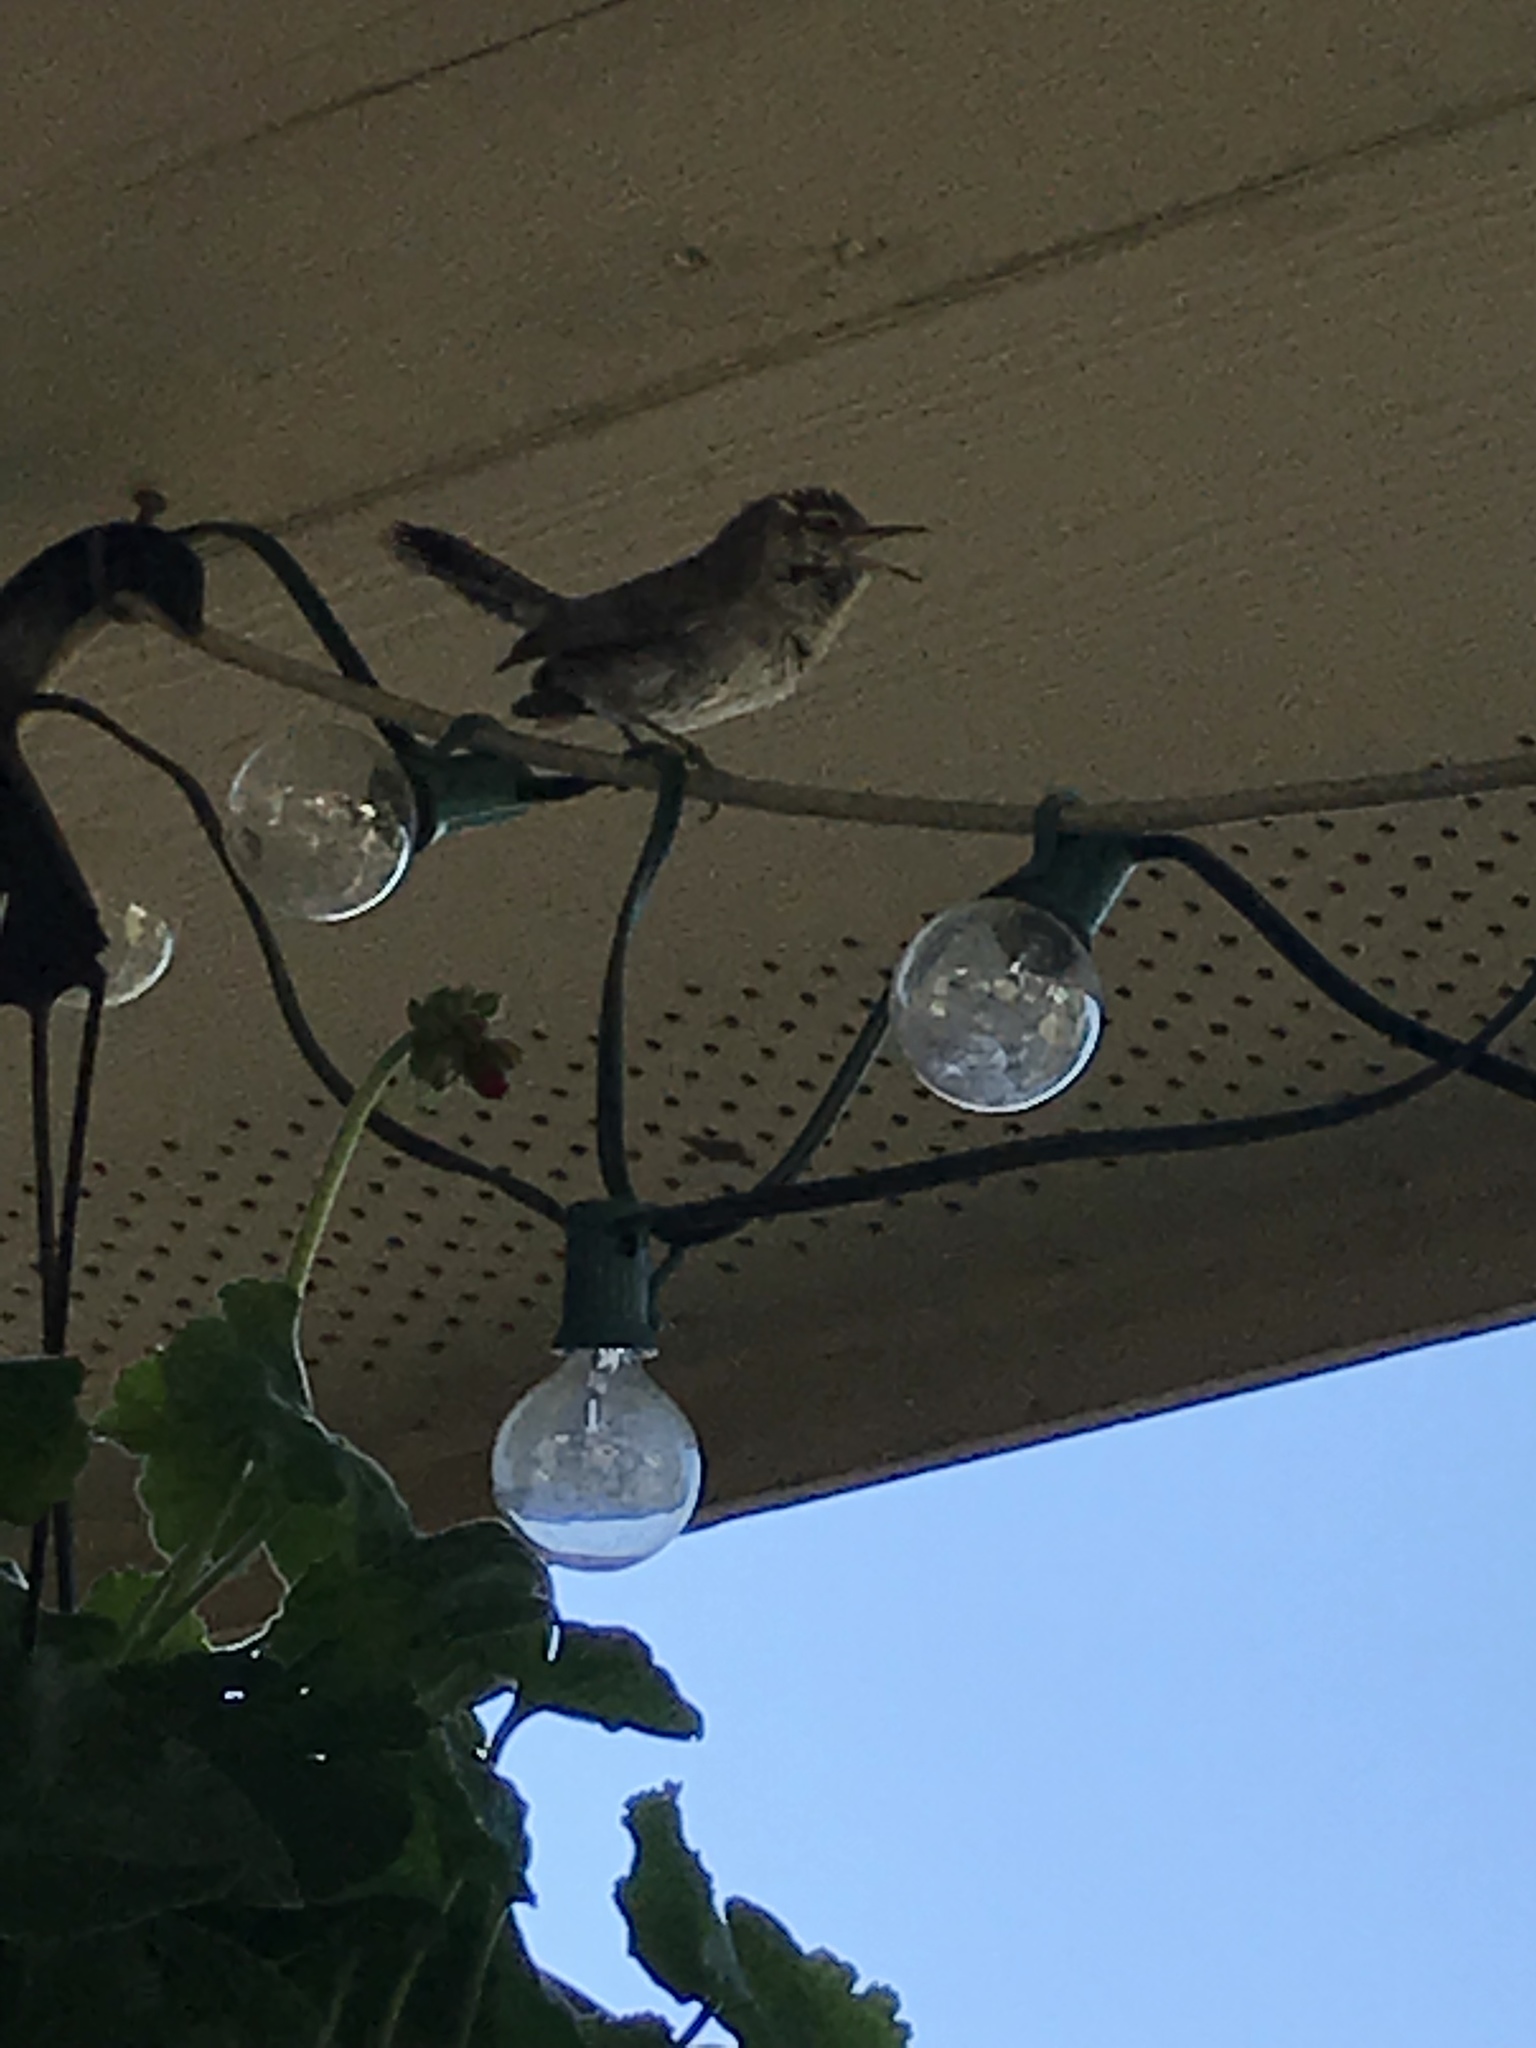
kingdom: Animalia
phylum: Chordata
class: Aves
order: Passeriformes
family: Troglodytidae
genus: Thryomanes
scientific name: Thryomanes bewickii
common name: Bewick's wren
